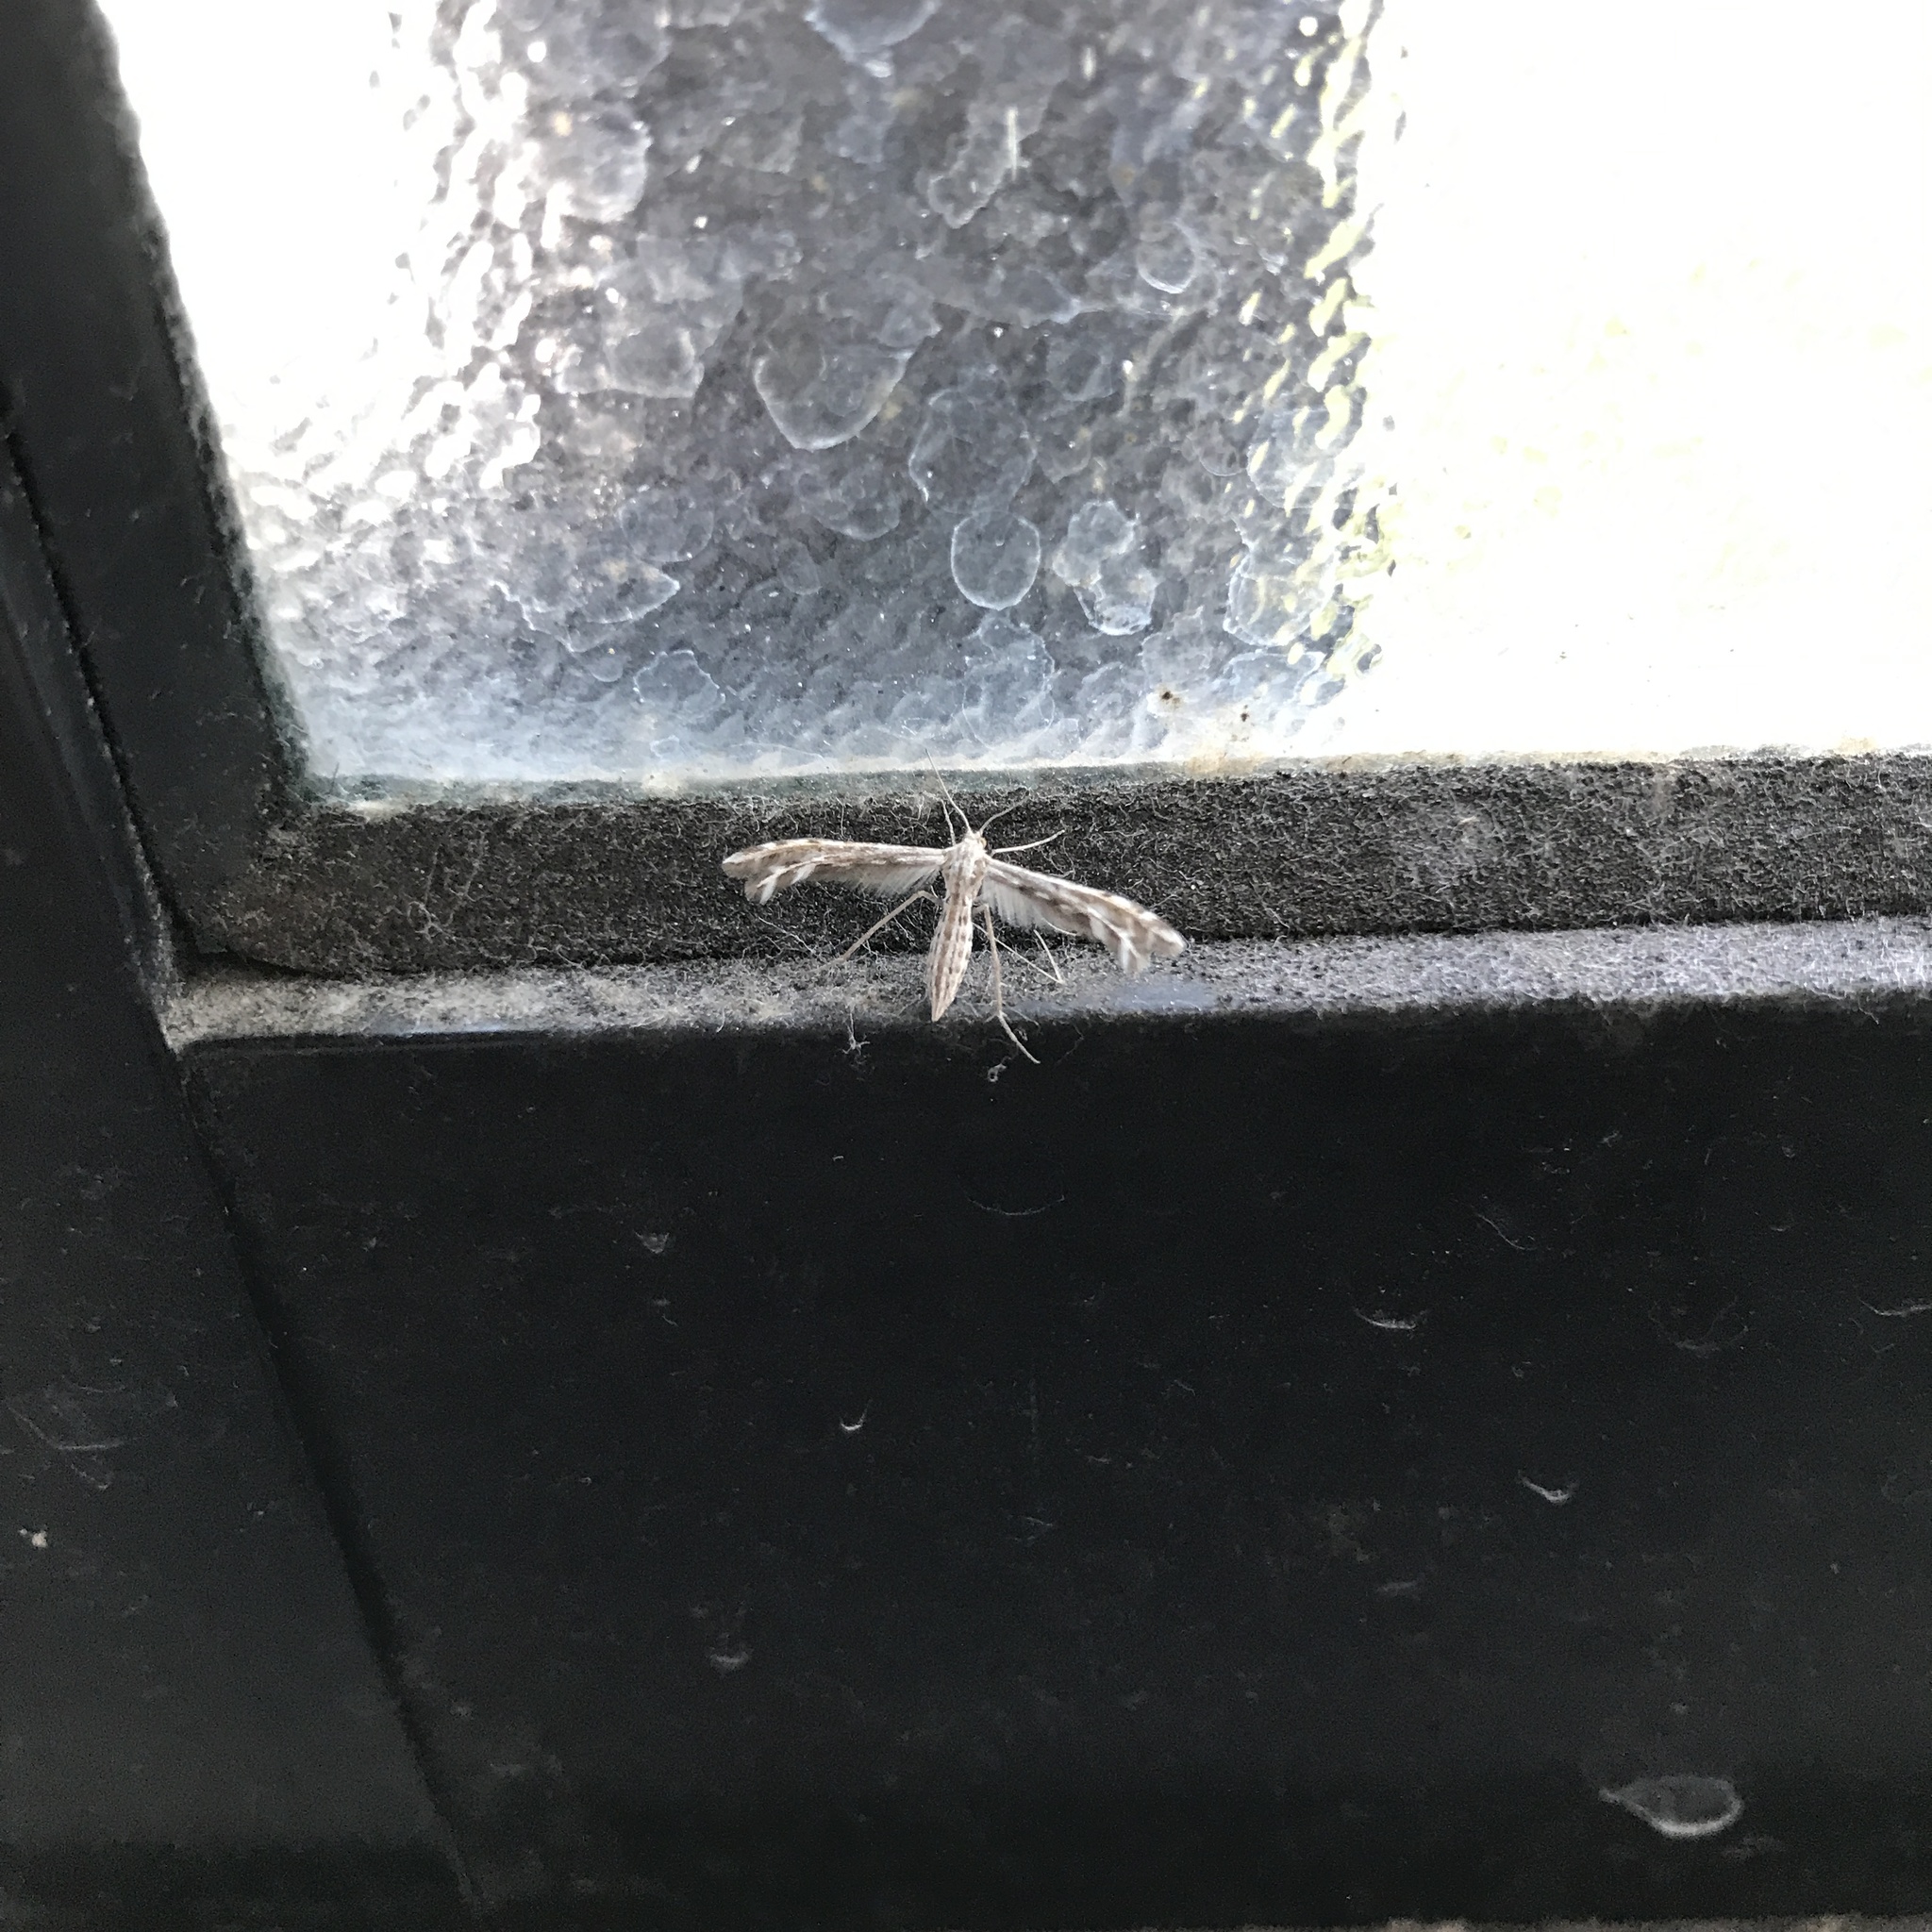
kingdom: Animalia
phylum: Arthropoda
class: Insecta
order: Lepidoptera
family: Pterophoridae
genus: Singularia
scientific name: Singularia alternaria
